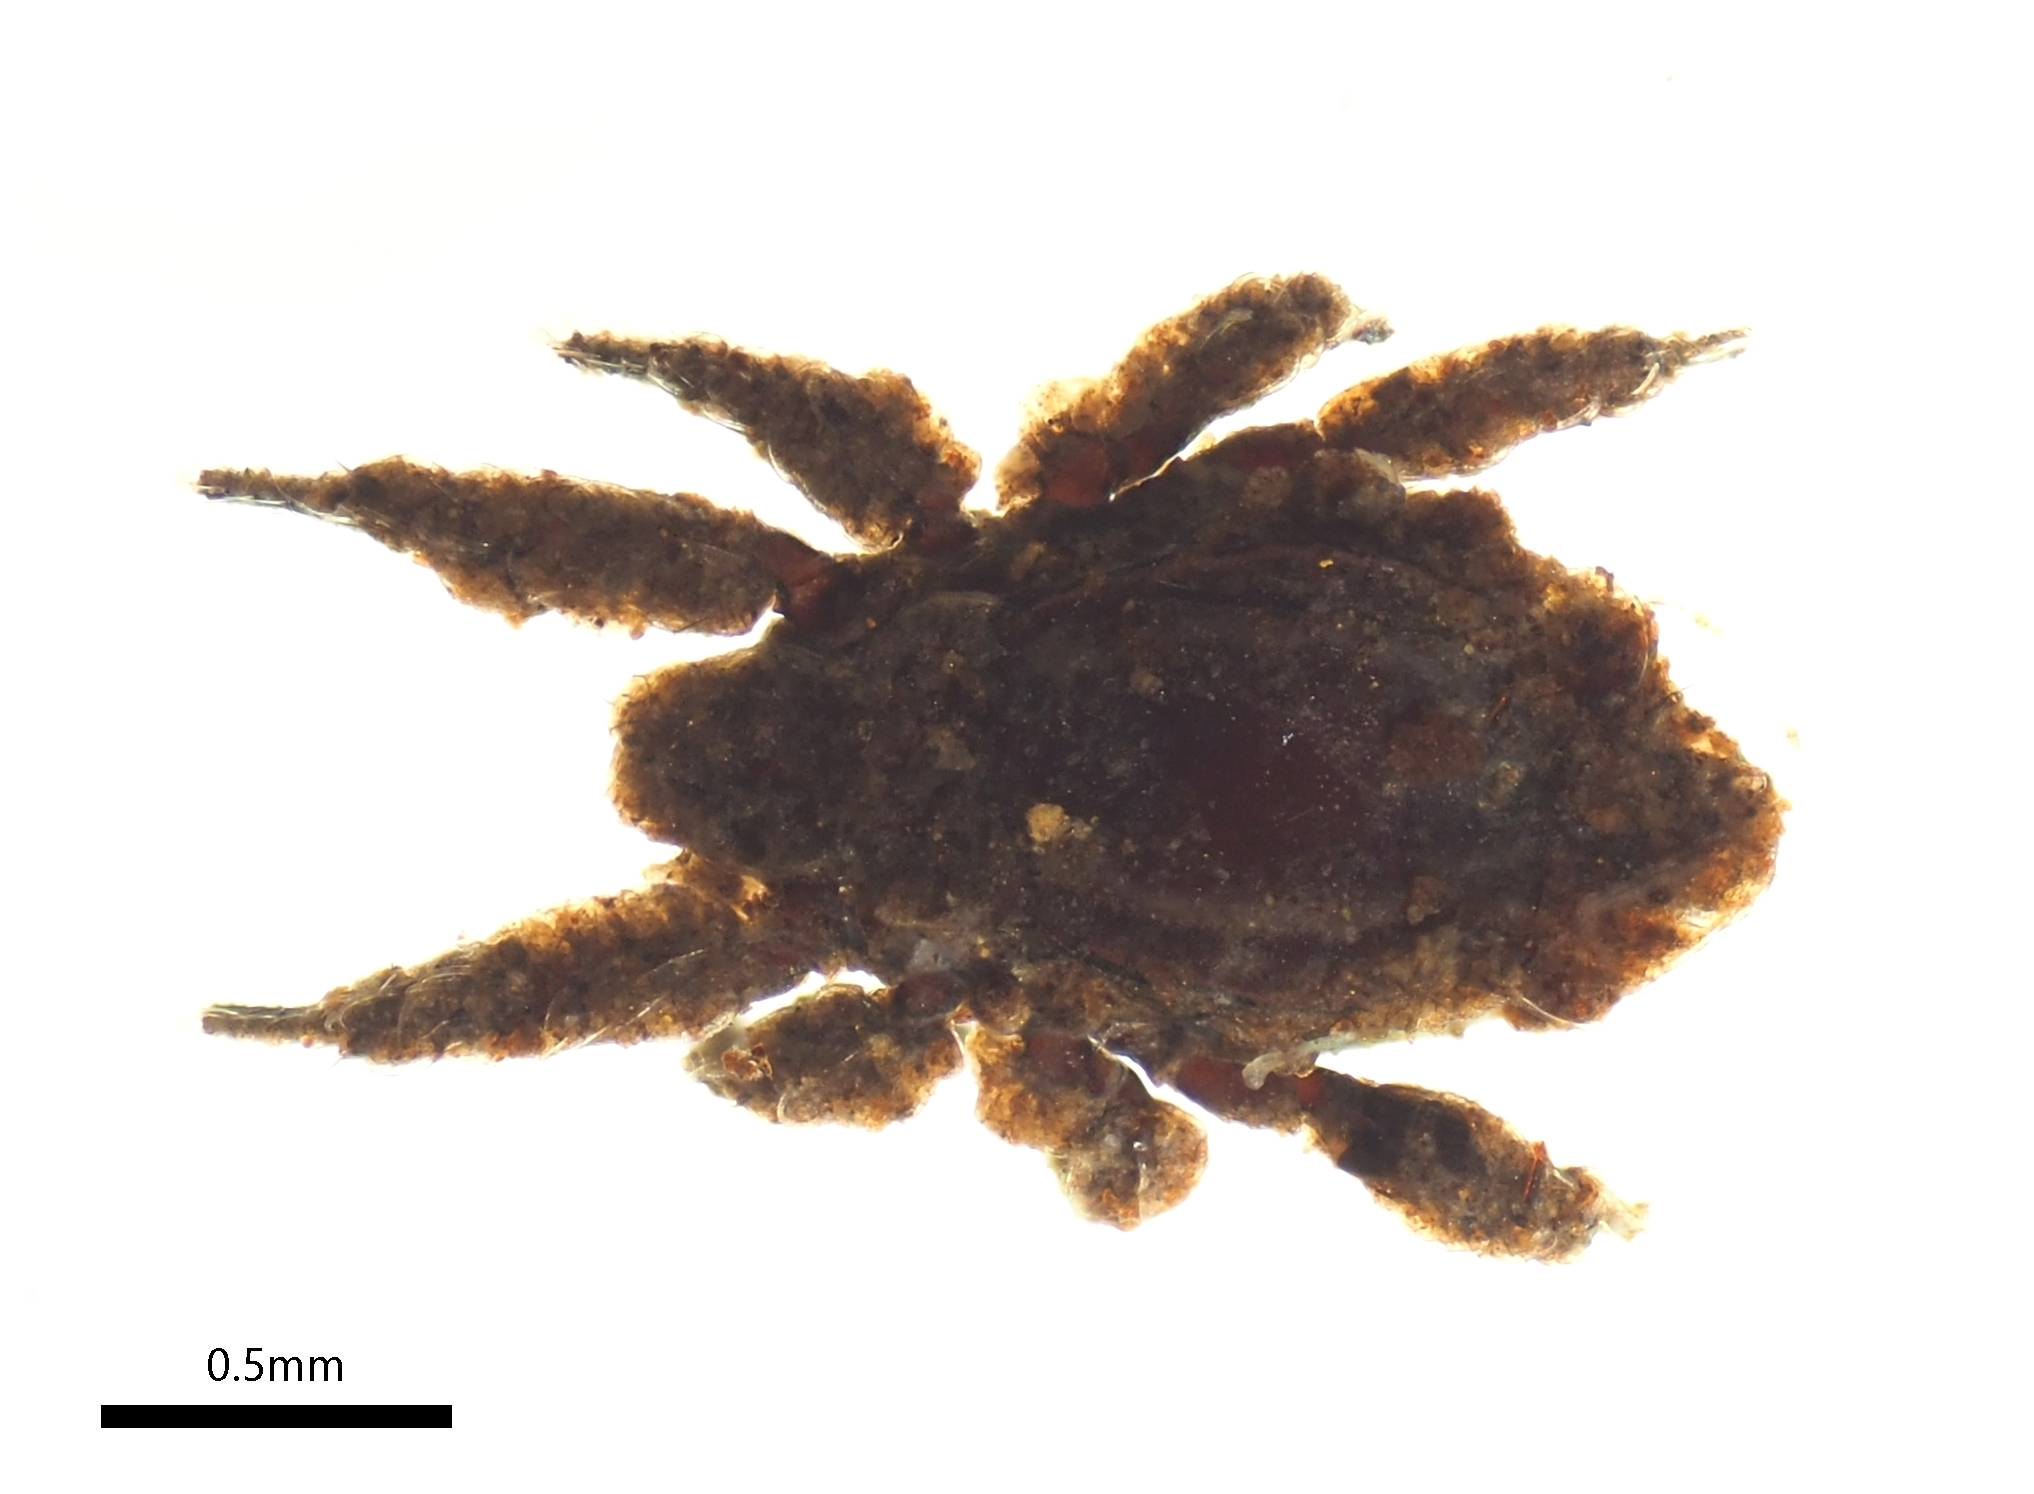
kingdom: Animalia
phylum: Arthropoda
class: Arachnida
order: Sarcoptiformes
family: Crotoniidae
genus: Crotonia
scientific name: Crotonia queenslandiae
